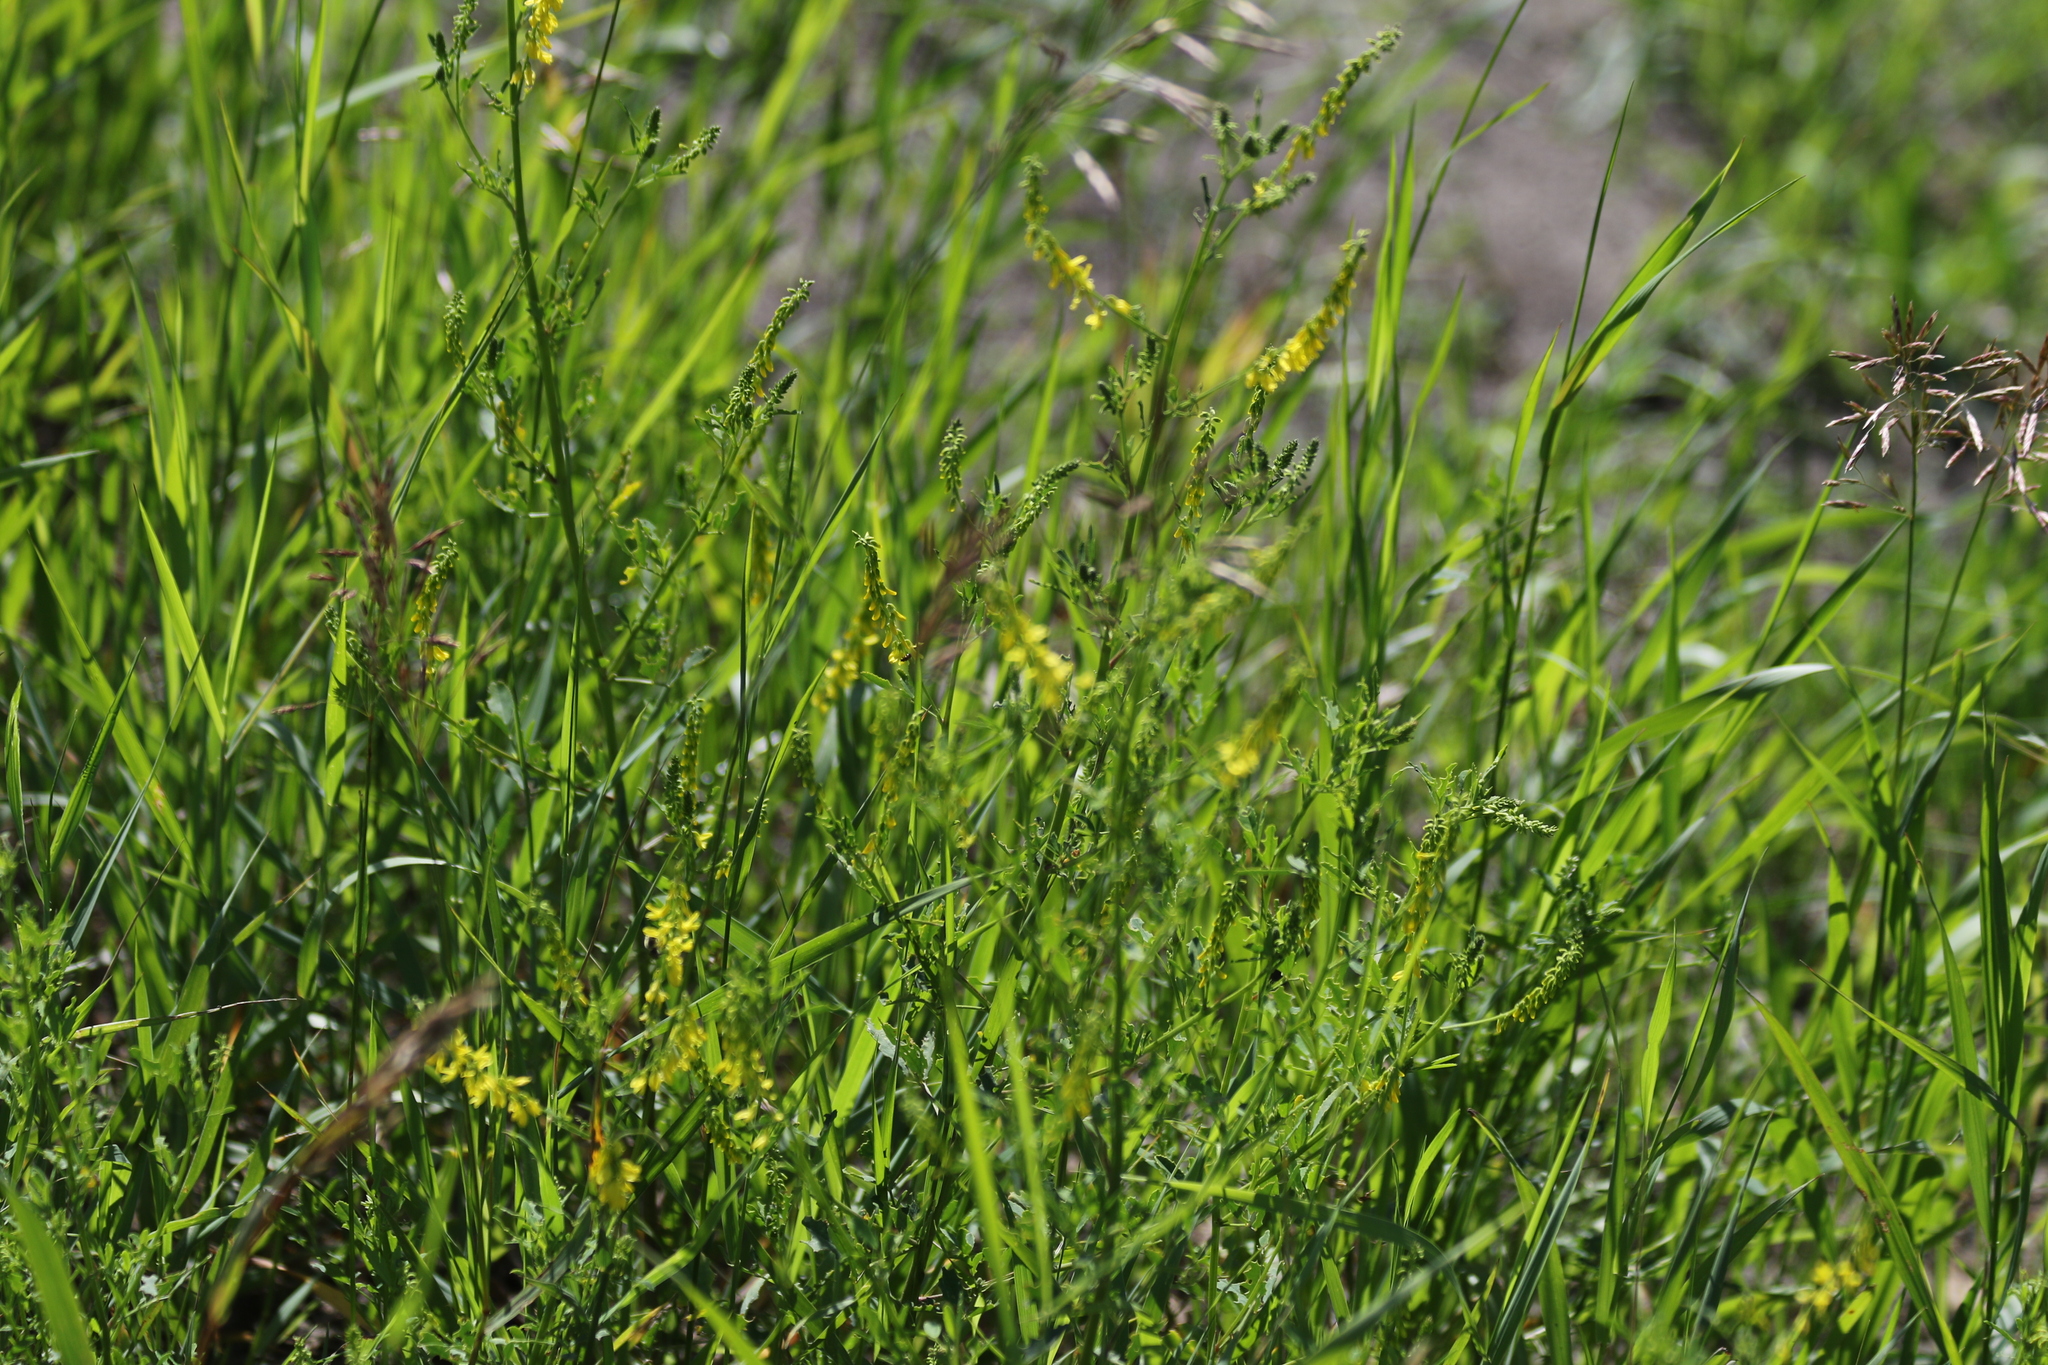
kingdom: Plantae
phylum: Tracheophyta
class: Magnoliopsida
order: Fabales
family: Fabaceae
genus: Melilotus
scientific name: Melilotus officinalis
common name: Sweetclover
